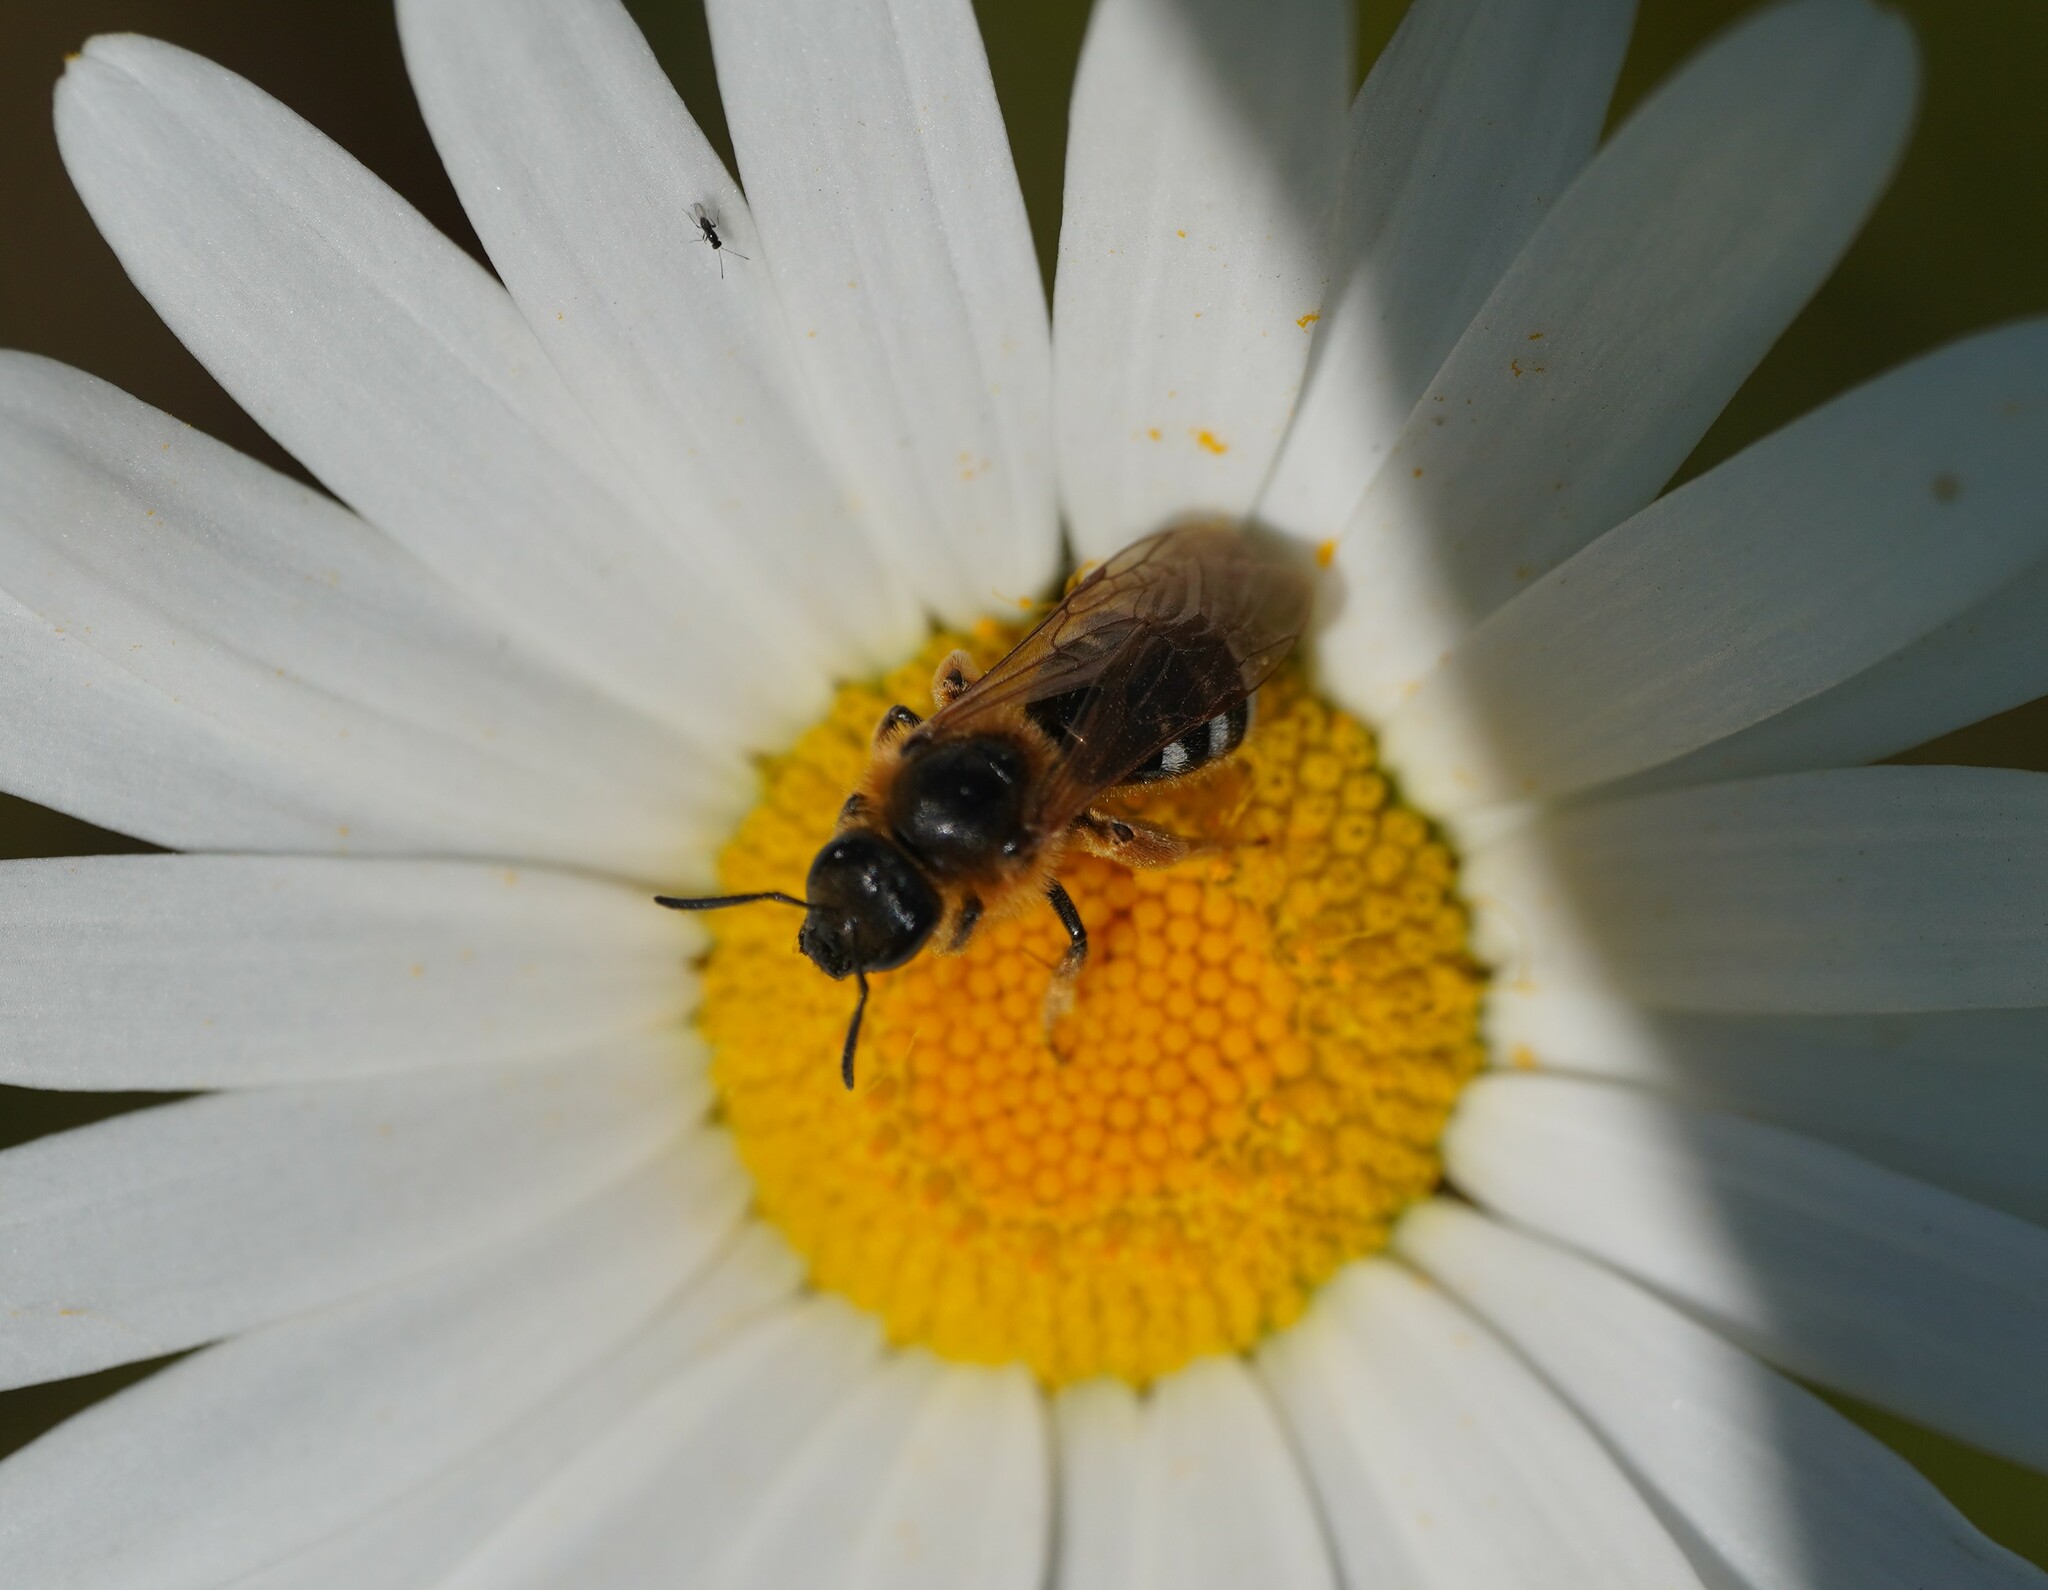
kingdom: Animalia
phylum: Arthropoda
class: Insecta
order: Hymenoptera
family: Halictidae
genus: Lasioglossum
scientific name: Lasioglossum xanthopus
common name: Orange-footed furrow bee
